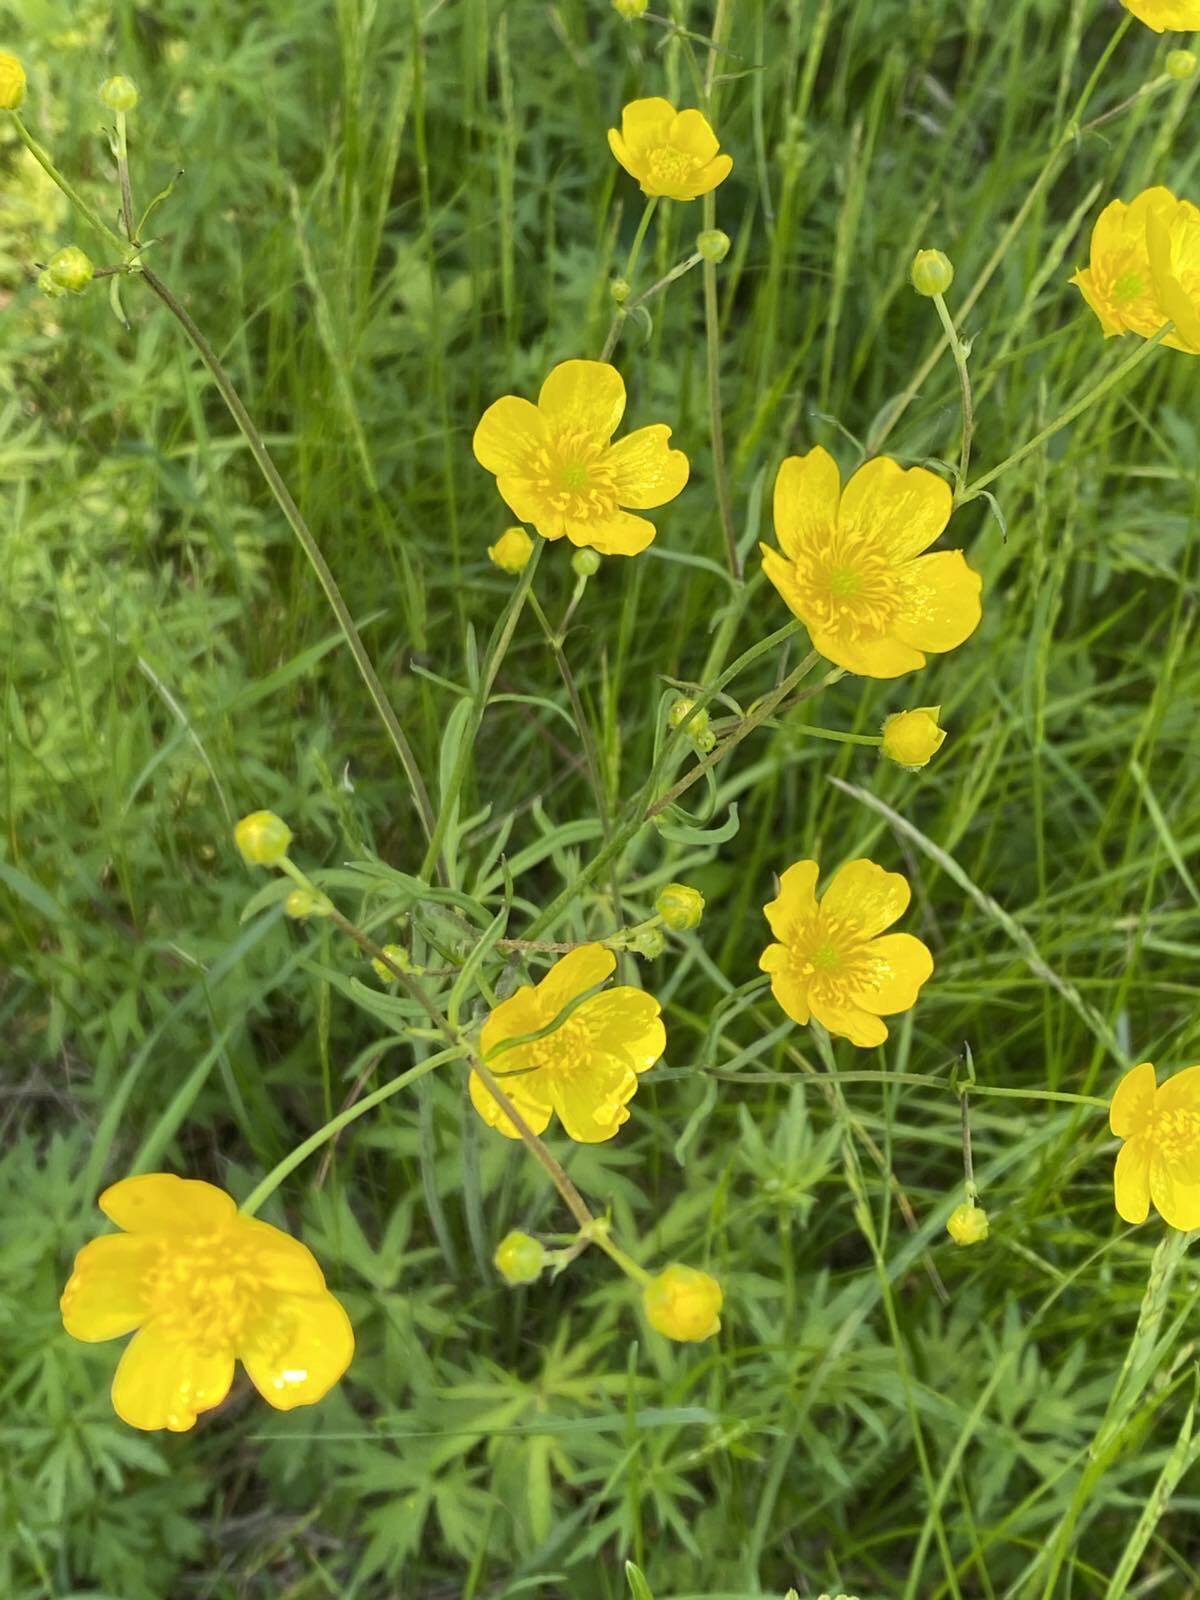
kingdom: Plantae
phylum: Tracheophyta
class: Magnoliopsida
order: Ranunculales
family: Ranunculaceae
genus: Ranunculus
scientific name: Ranunculus acris
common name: Meadow buttercup
